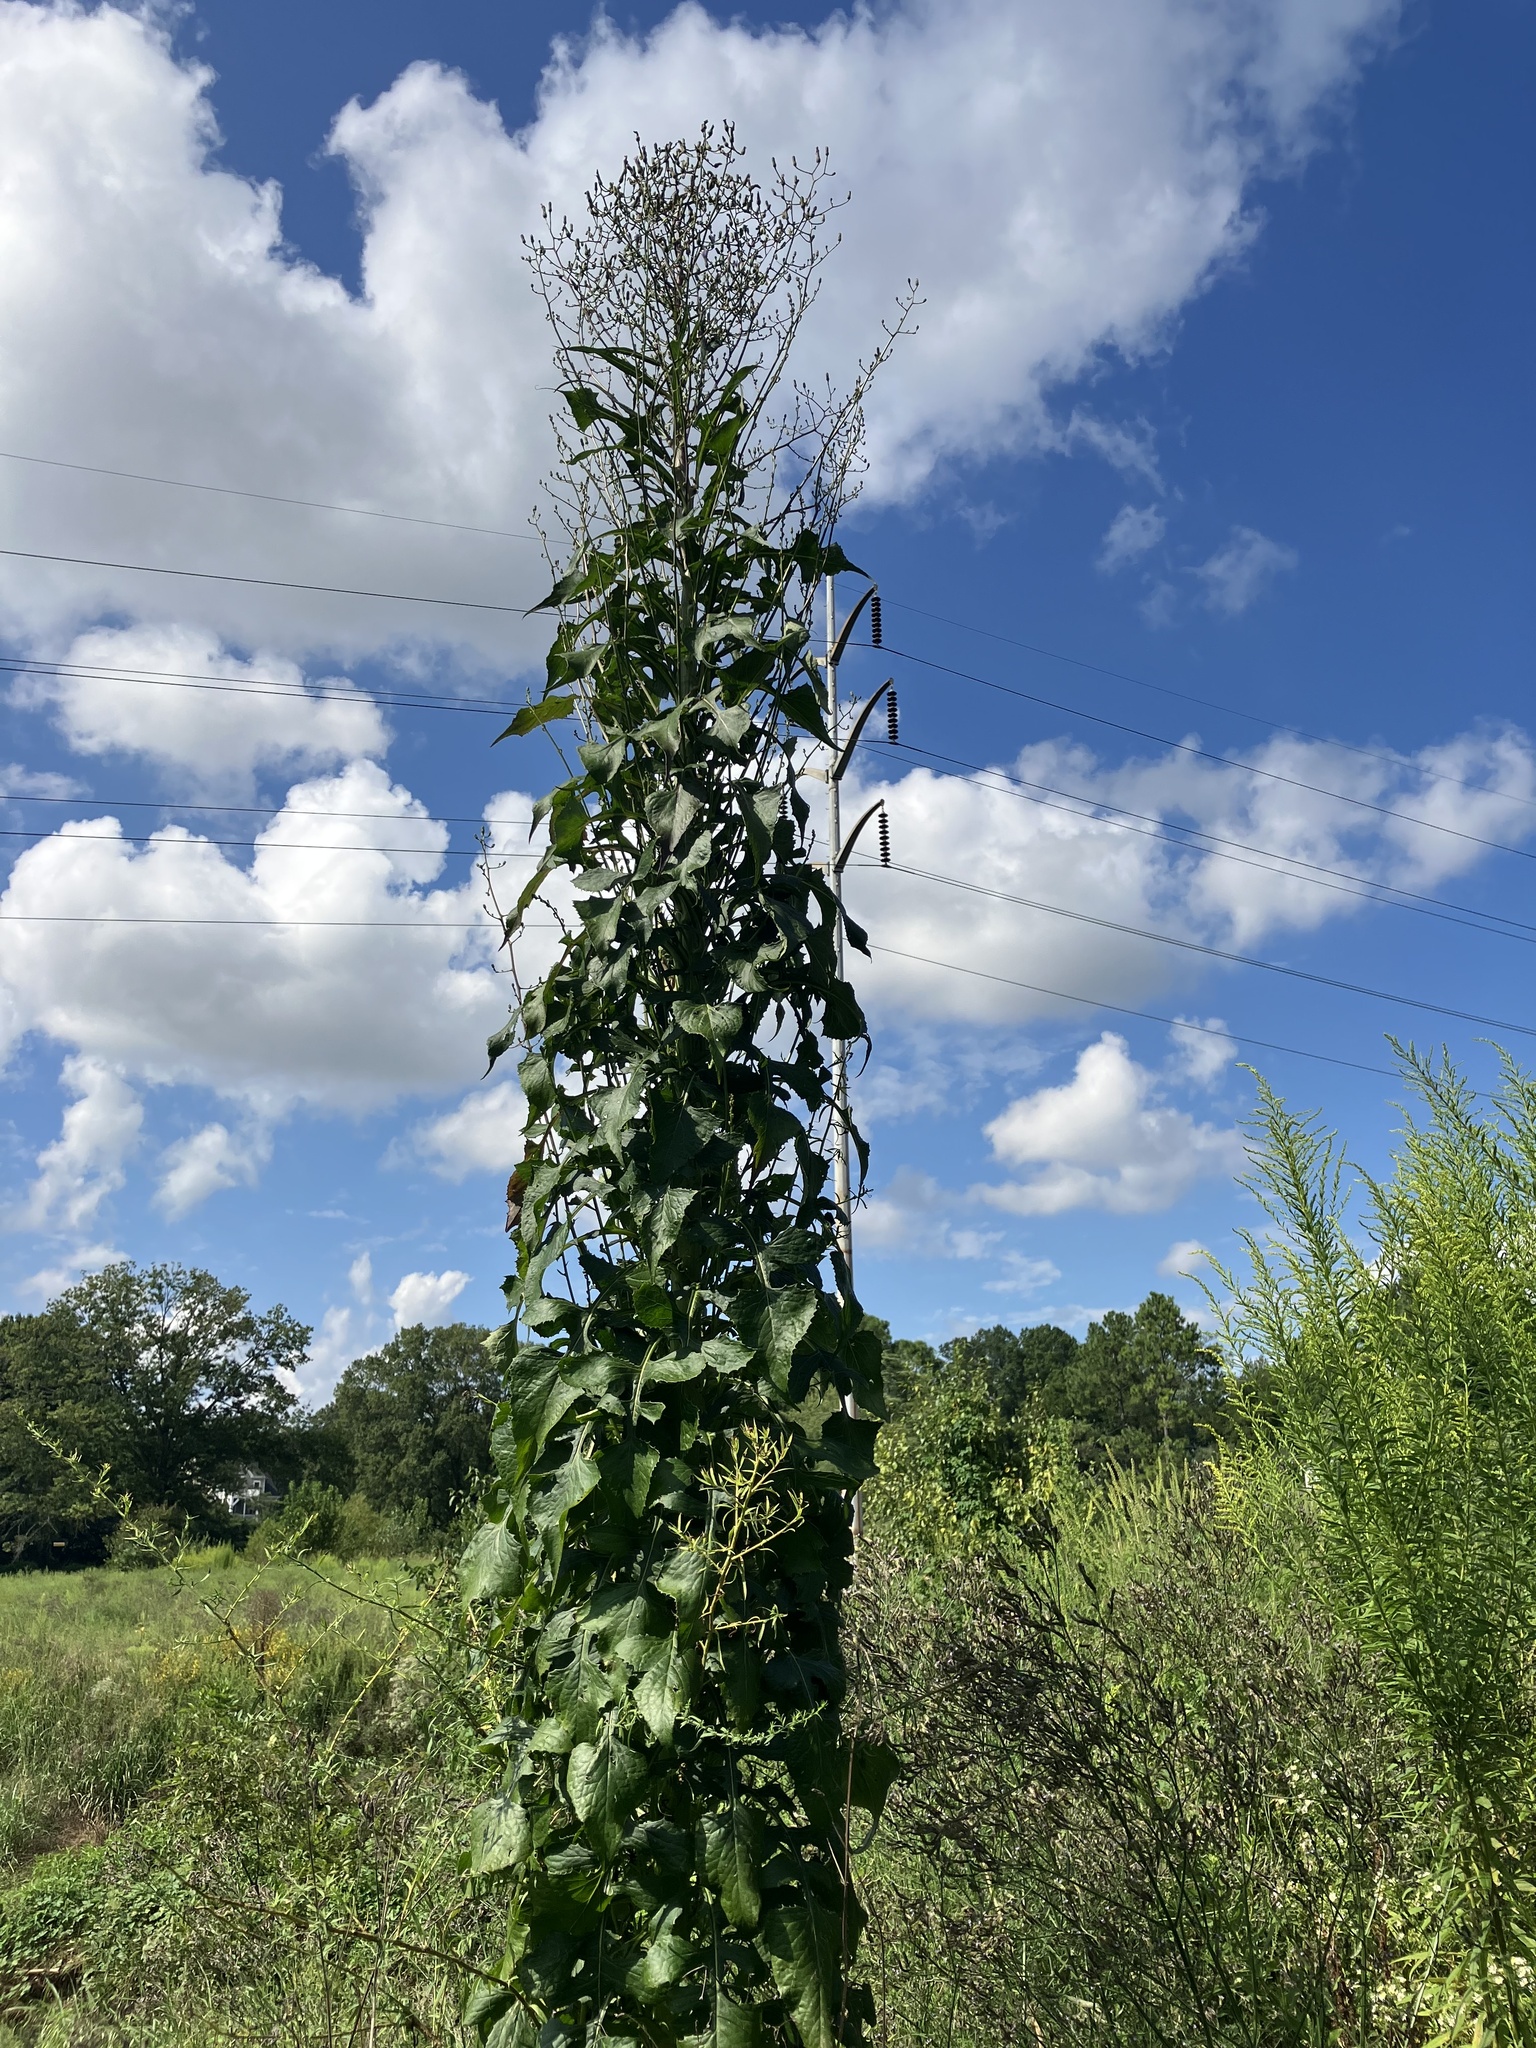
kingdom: Plantae
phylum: Tracheophyta
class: Magnoliopsida
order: Asterales
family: Asteraceae
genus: Lactuca
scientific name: Lactuca floridana
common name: Woodland lettuce
